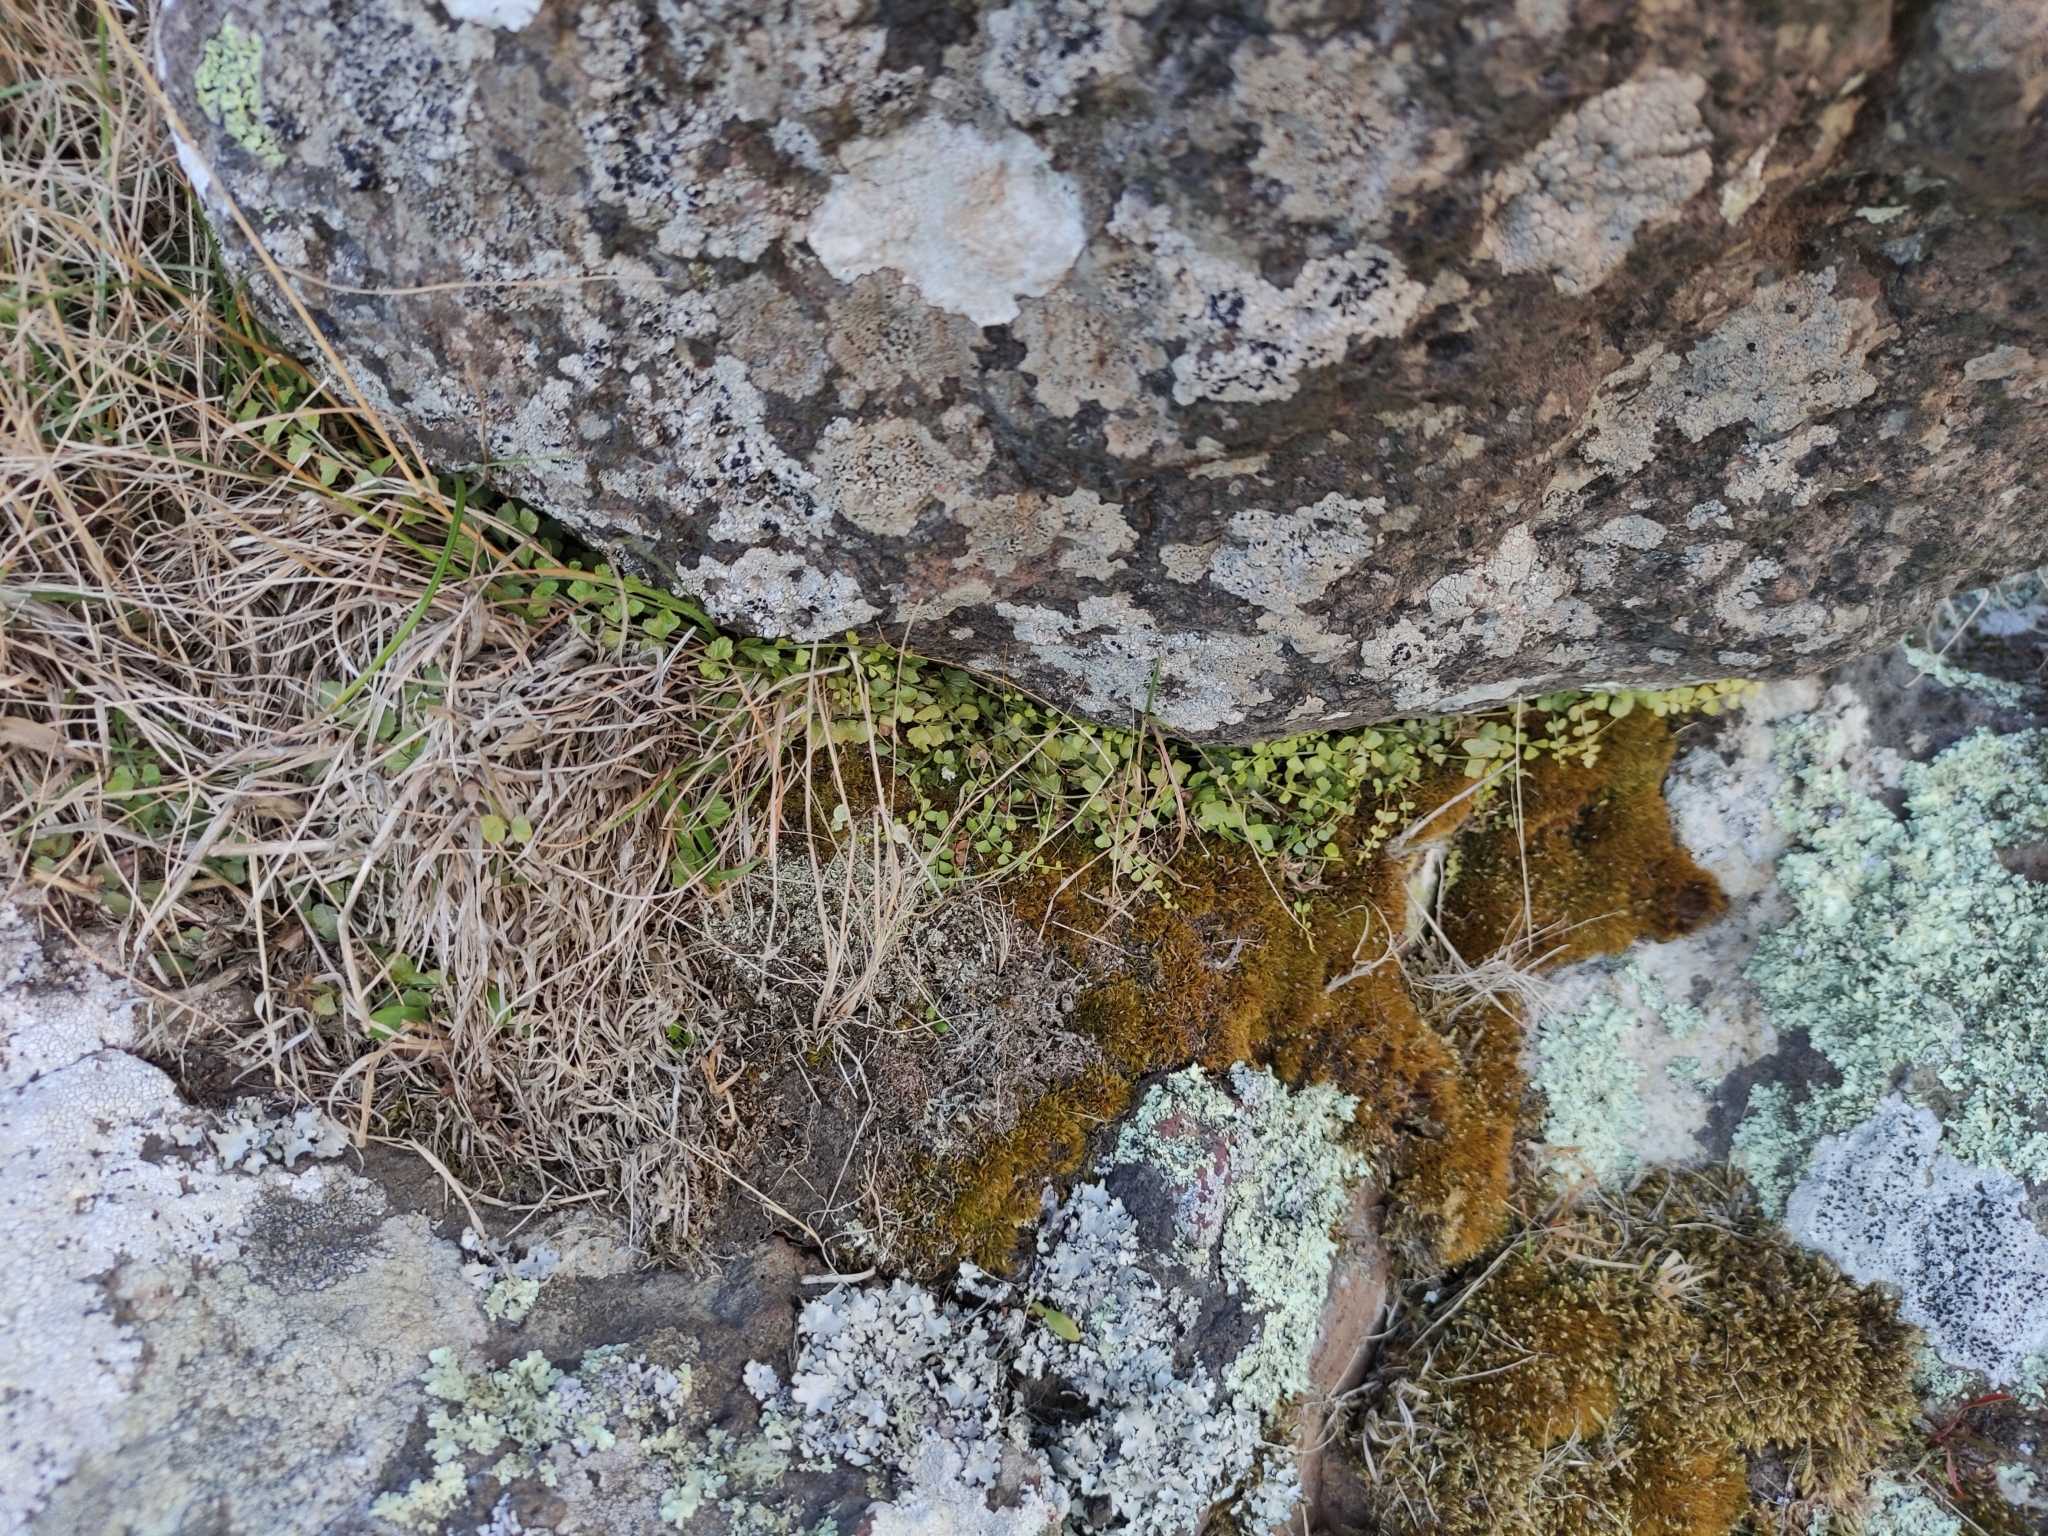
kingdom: Plantae
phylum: Tracheophyta
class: Polypodiopsida
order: Polypodiales
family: Aspleniaceae
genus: Asplenium
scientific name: Asplenium flabellifolium
